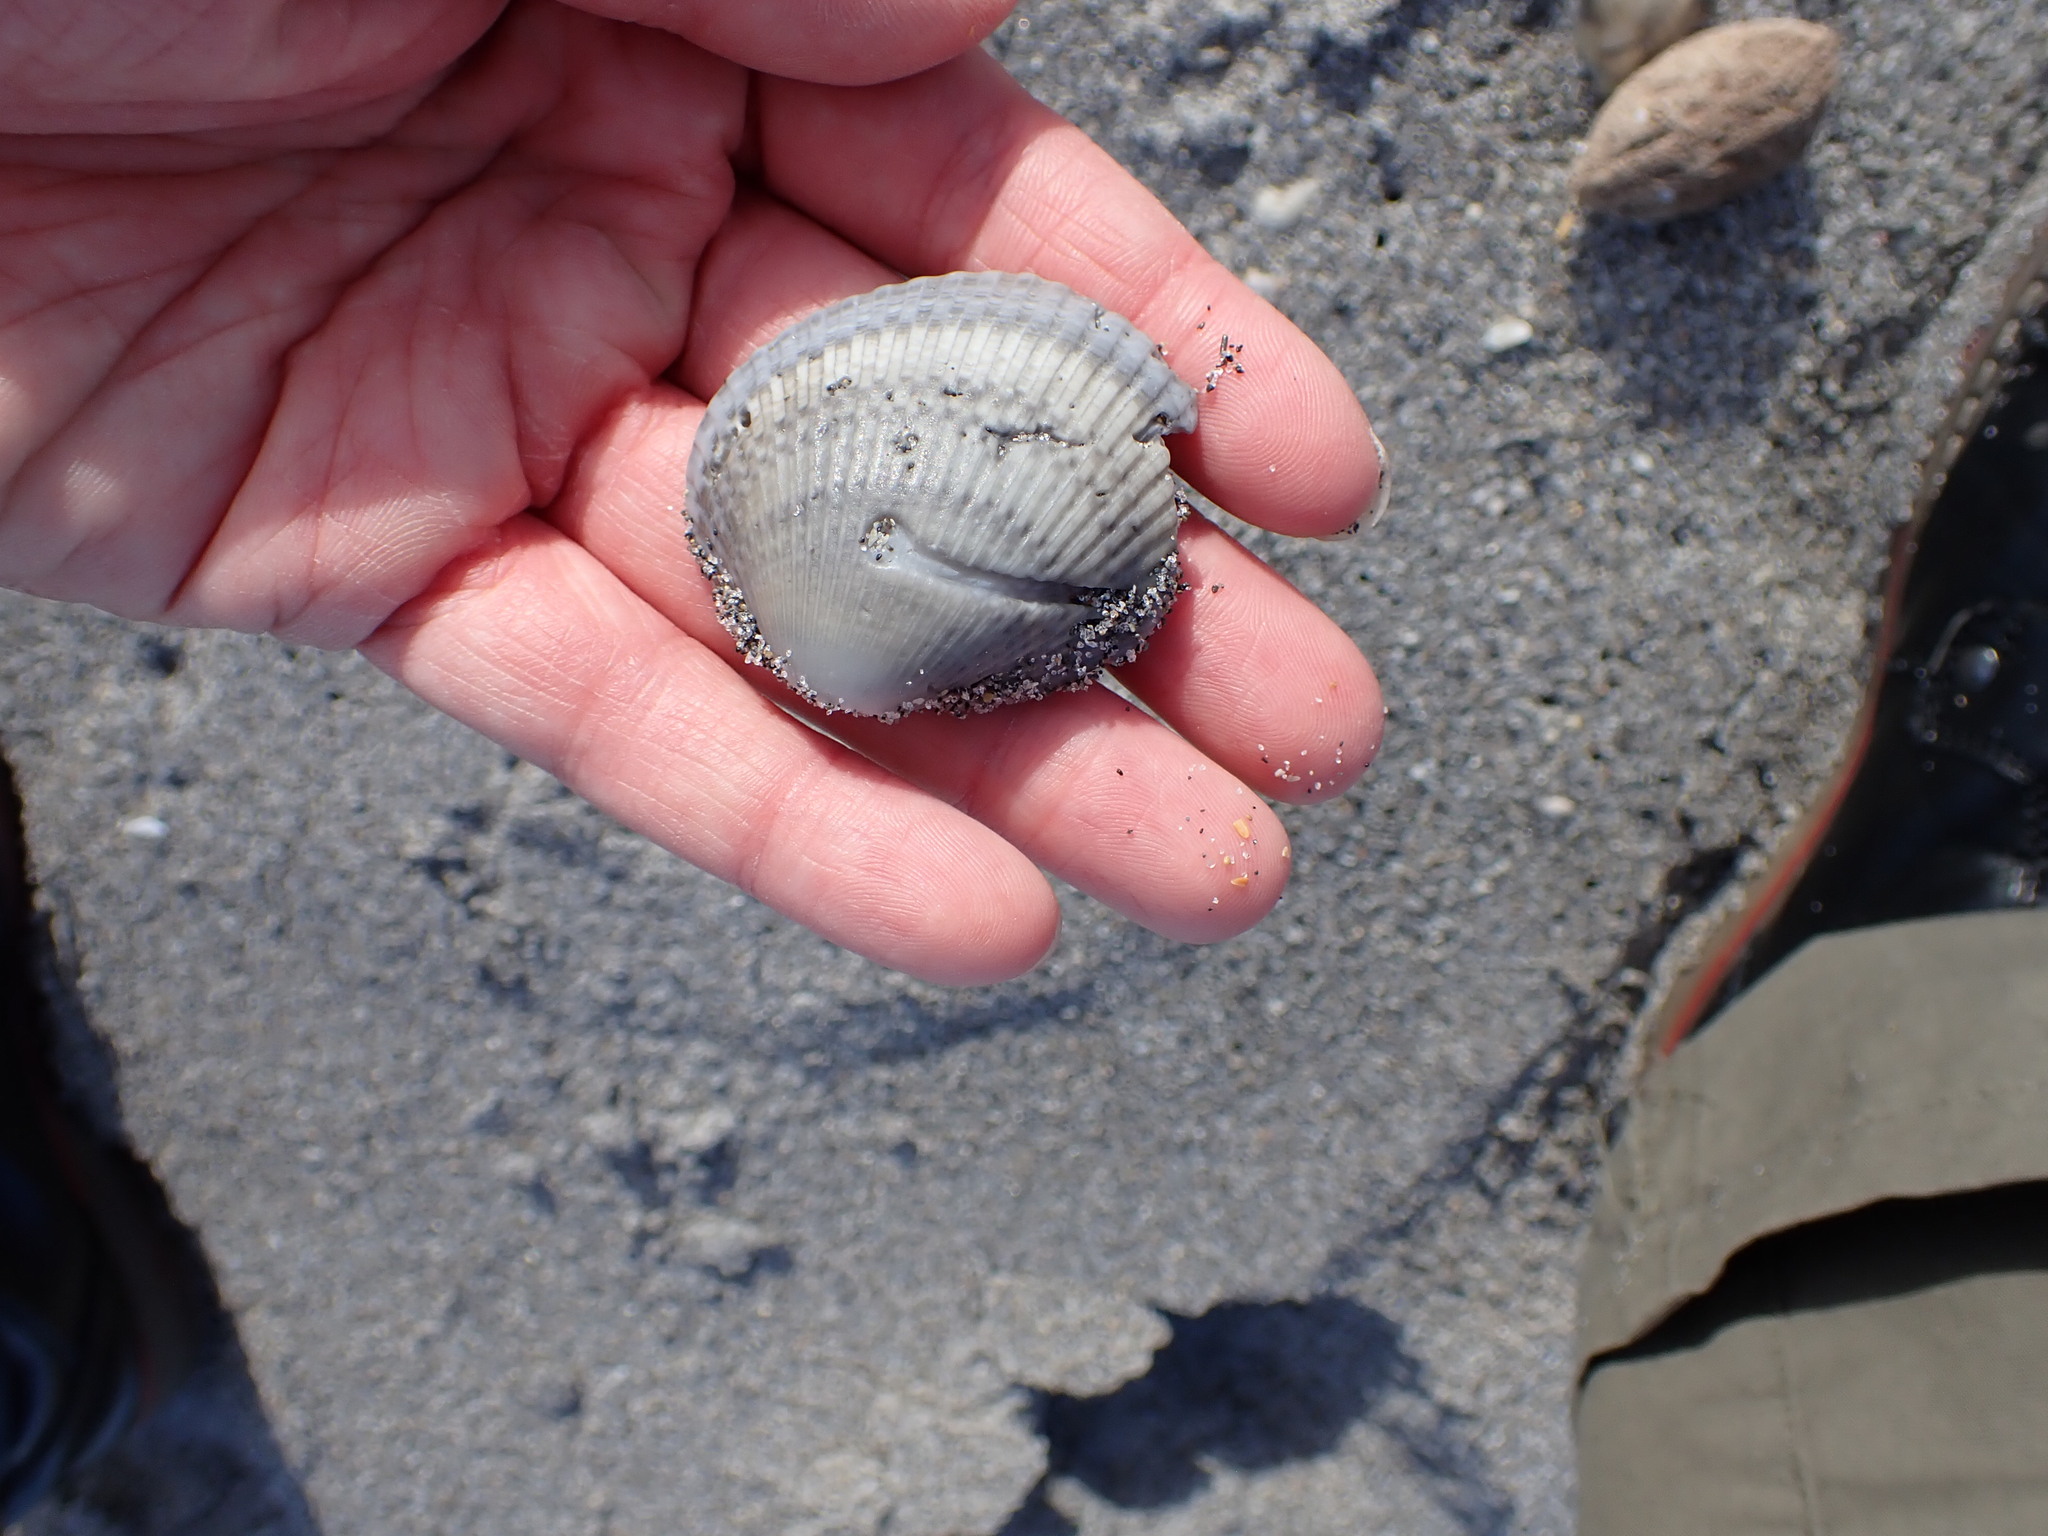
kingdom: Animalia
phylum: Mollusca
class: Bivalvia
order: Arcida
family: Arcidae
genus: Lunarca
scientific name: Lunarca ovalis
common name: Blood ark
